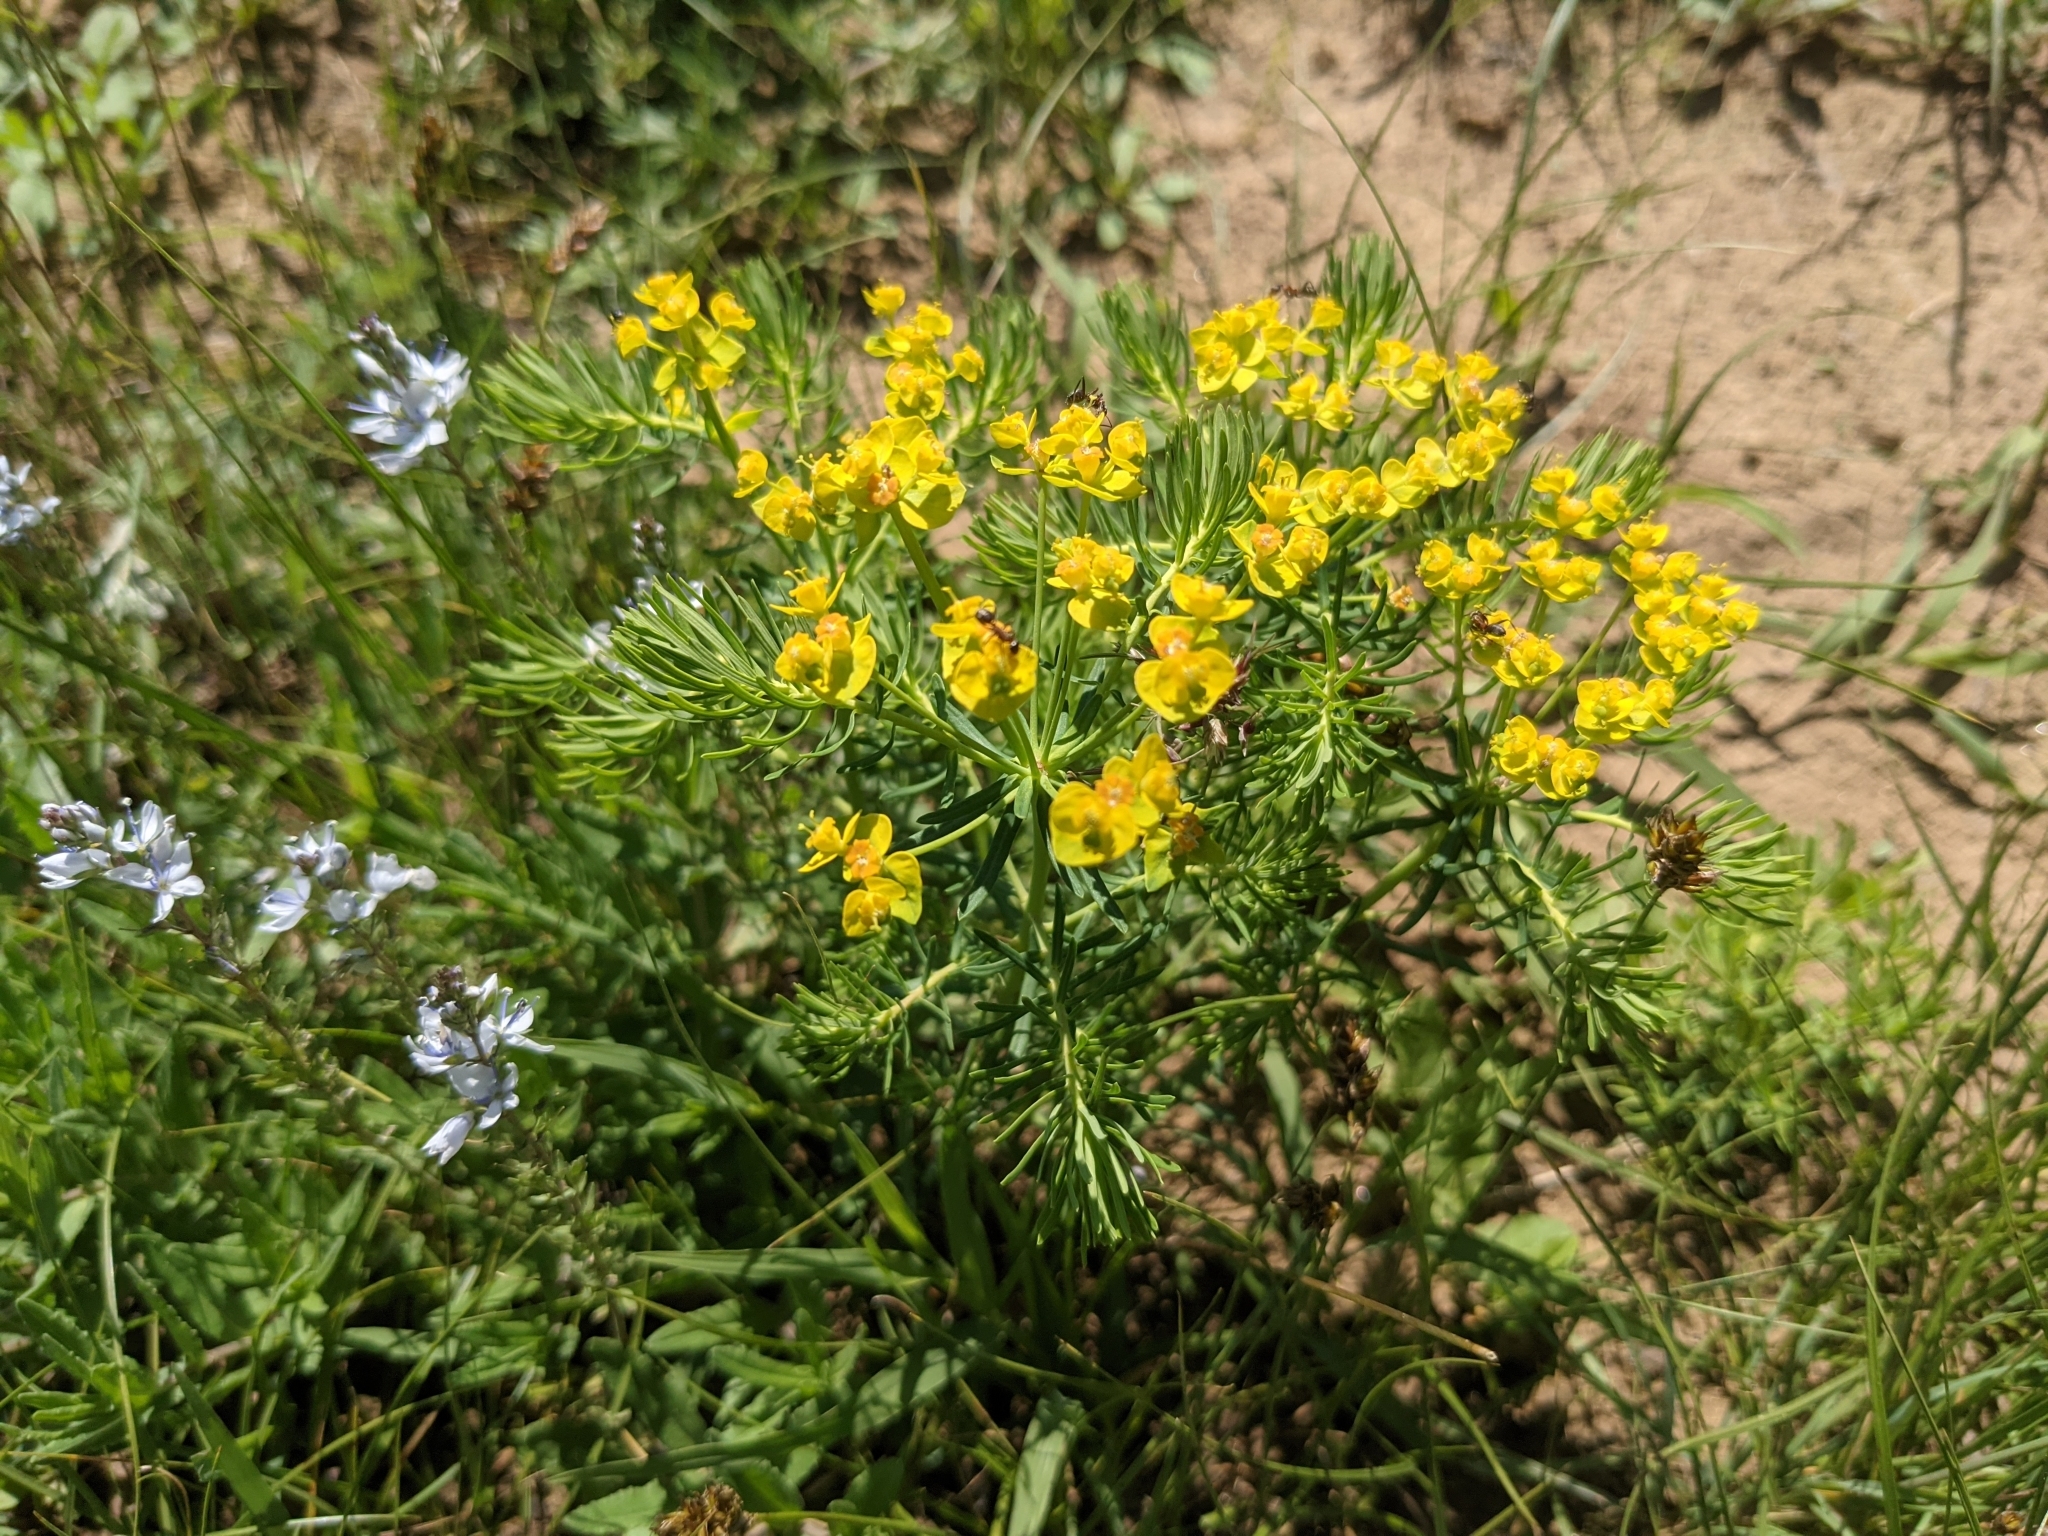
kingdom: Plantae
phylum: Tracheophyta
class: Magnoliopsida
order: Malpighiales
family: Euphorbiaceae
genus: Euphorbia
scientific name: Euphorbia cyparissias
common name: Cypress spurge
